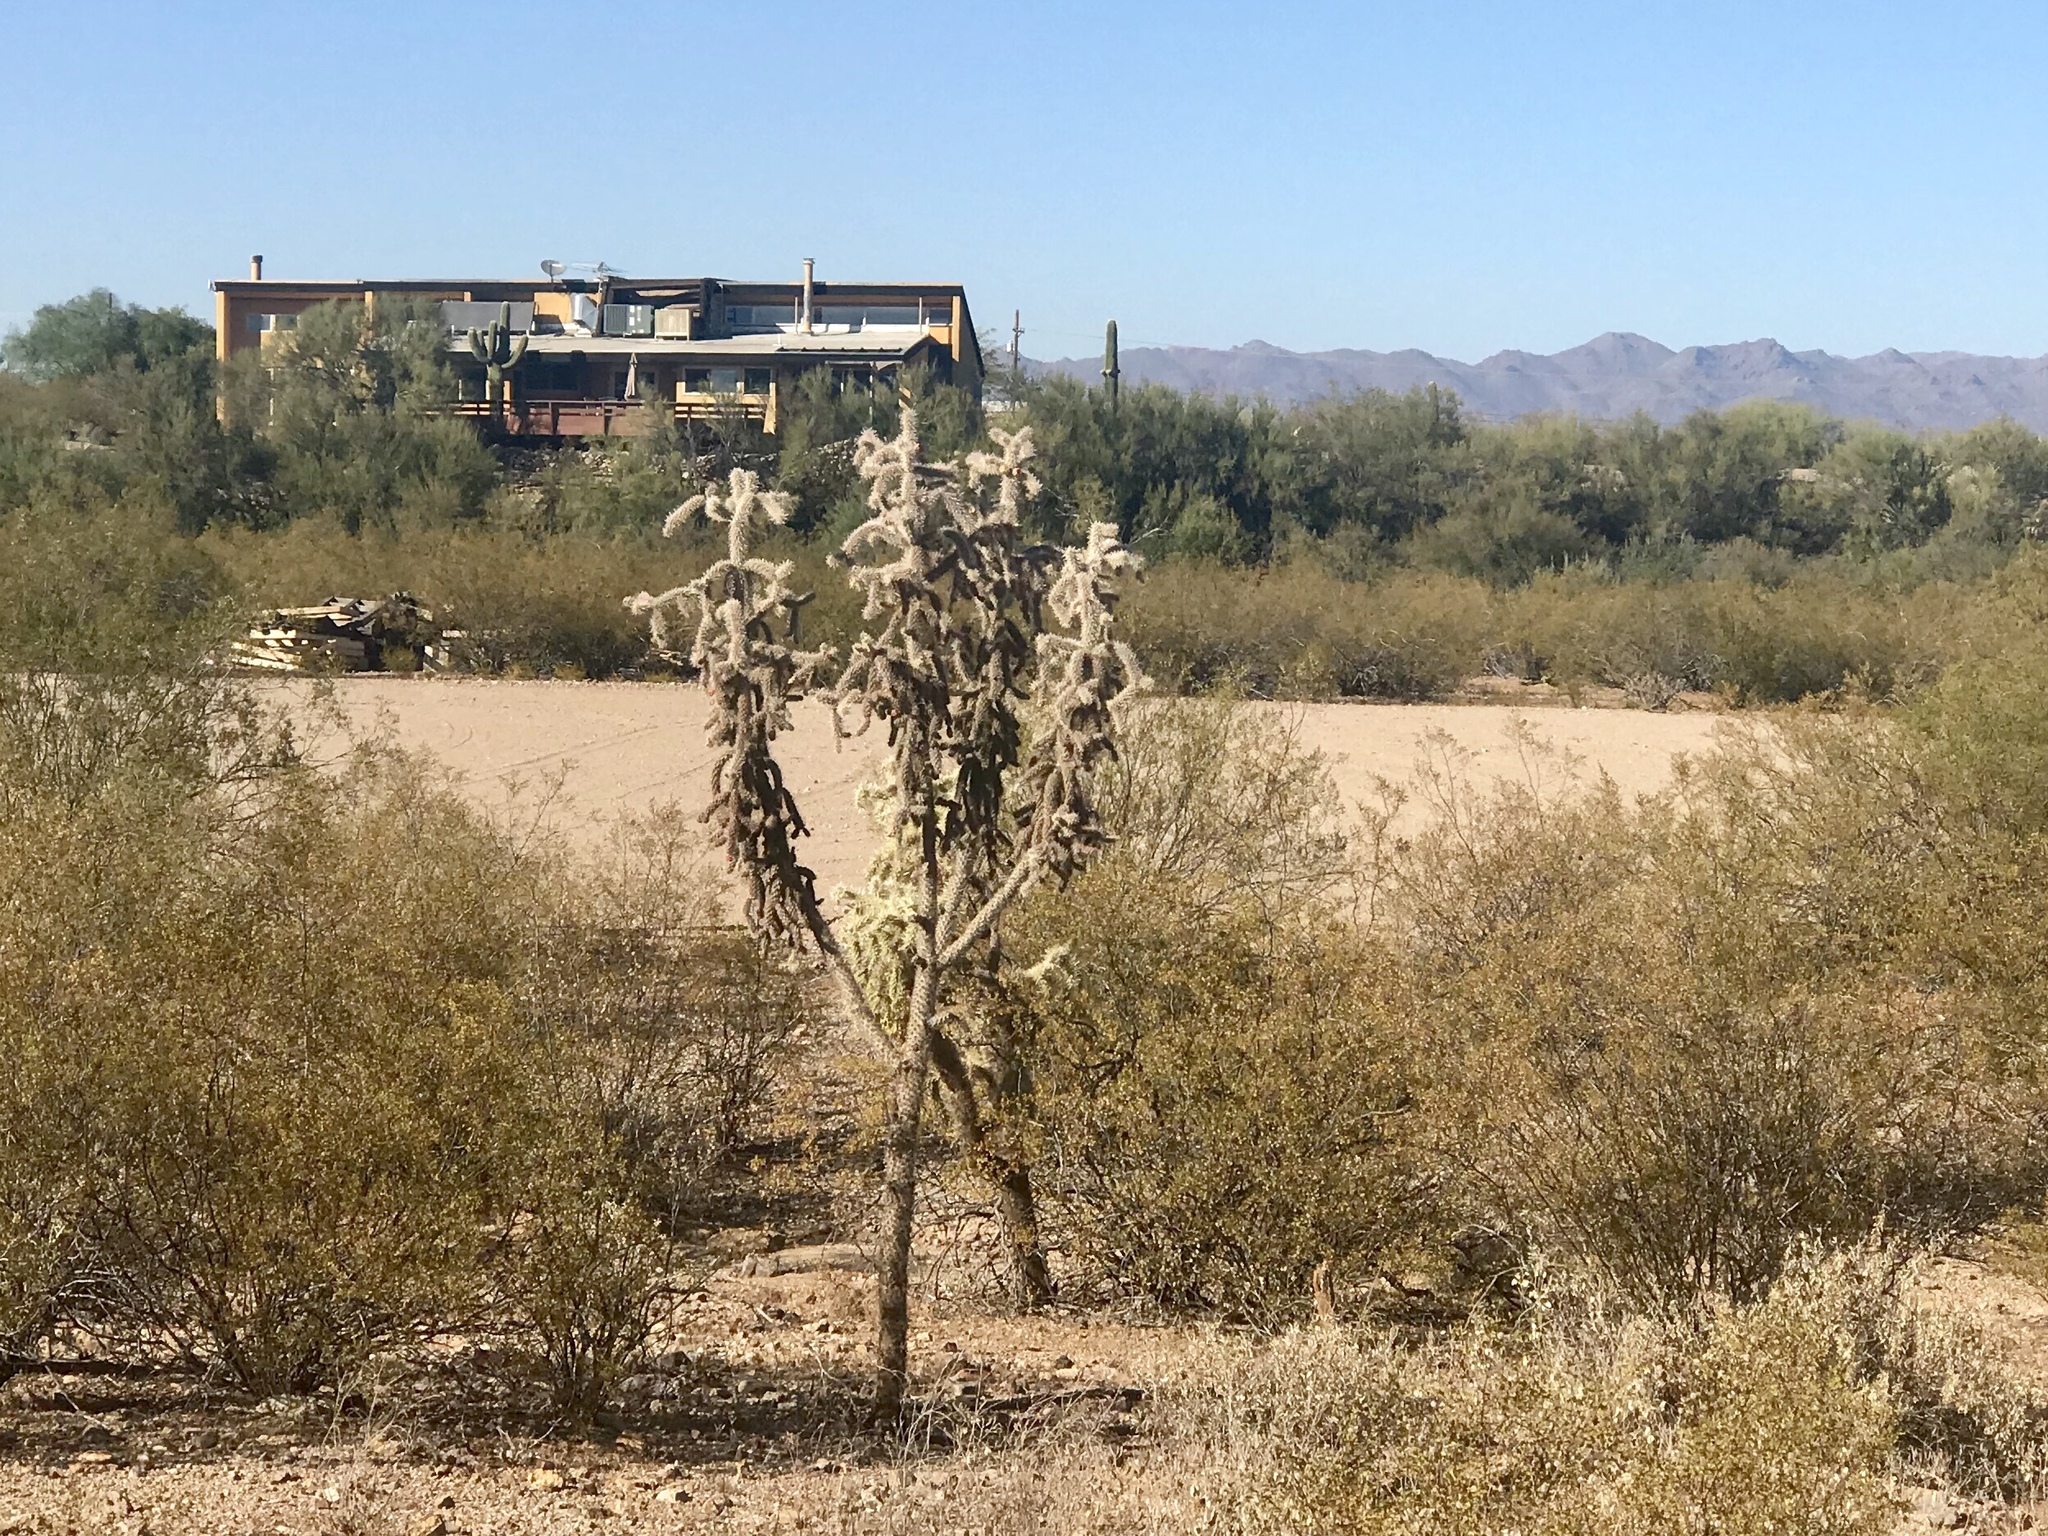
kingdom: Plantae
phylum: Tracheophyta
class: Magnoliopsida
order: Caryophyllales
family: Cactaceae
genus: Cylindropuntia
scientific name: Cylindropuntia fulgida
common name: Jumping cholla
